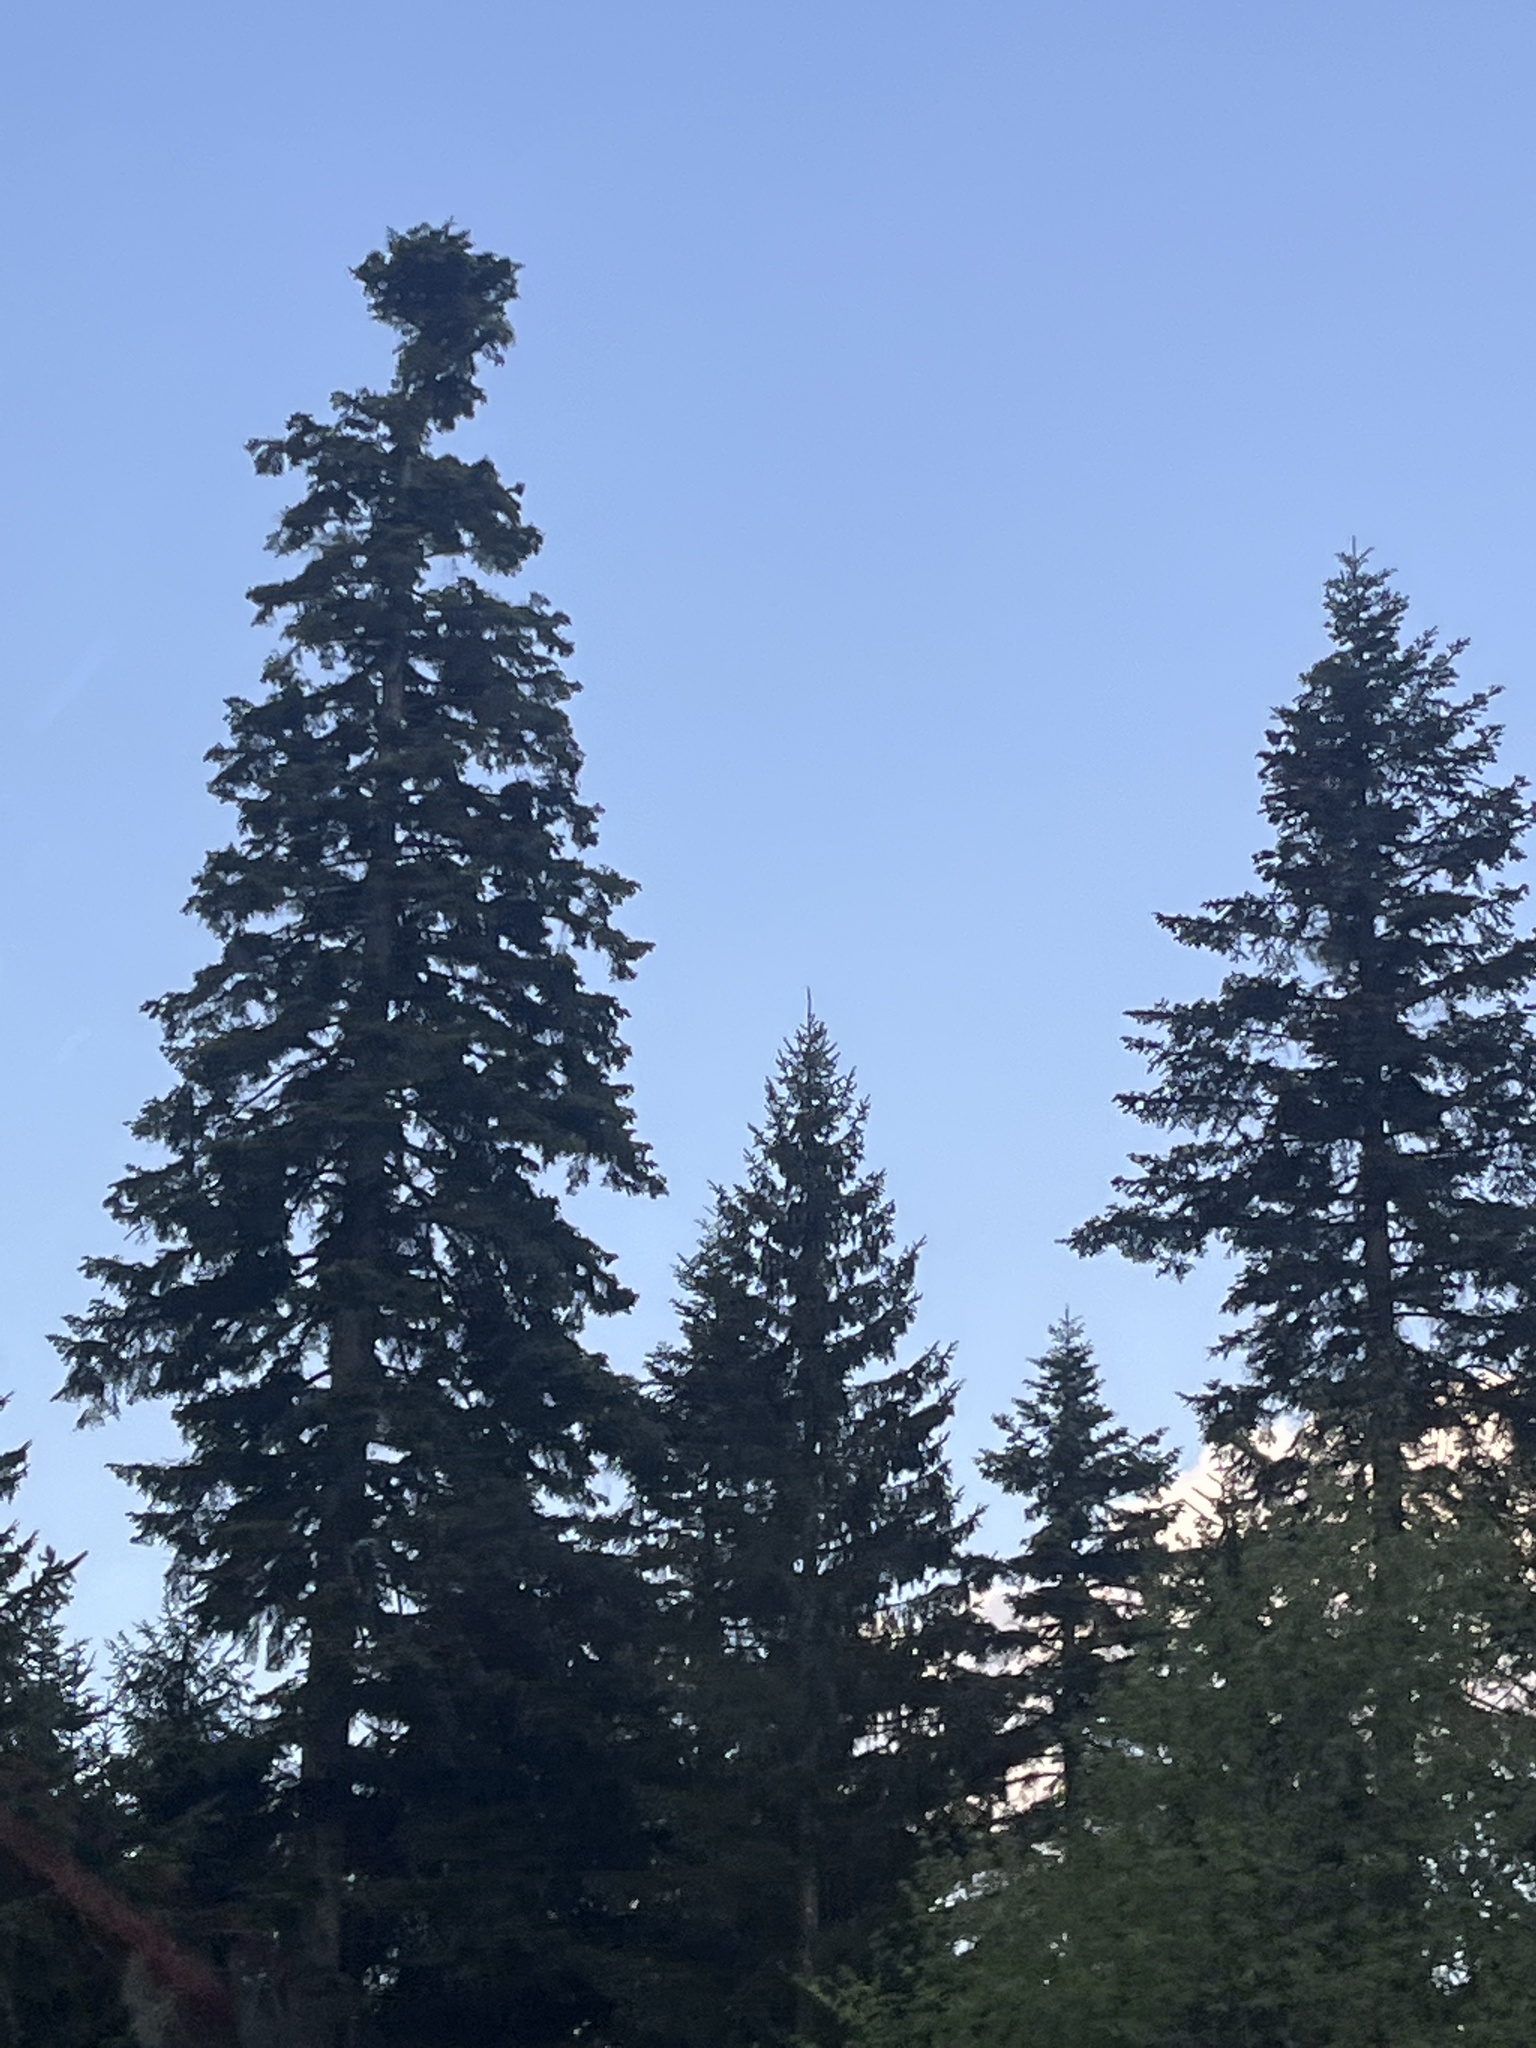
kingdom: Plantae
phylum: Tracheophyta
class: Pinopsida
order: Pinales
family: Pinaceae
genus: Picea
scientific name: Picea abies
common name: Norway spruce
